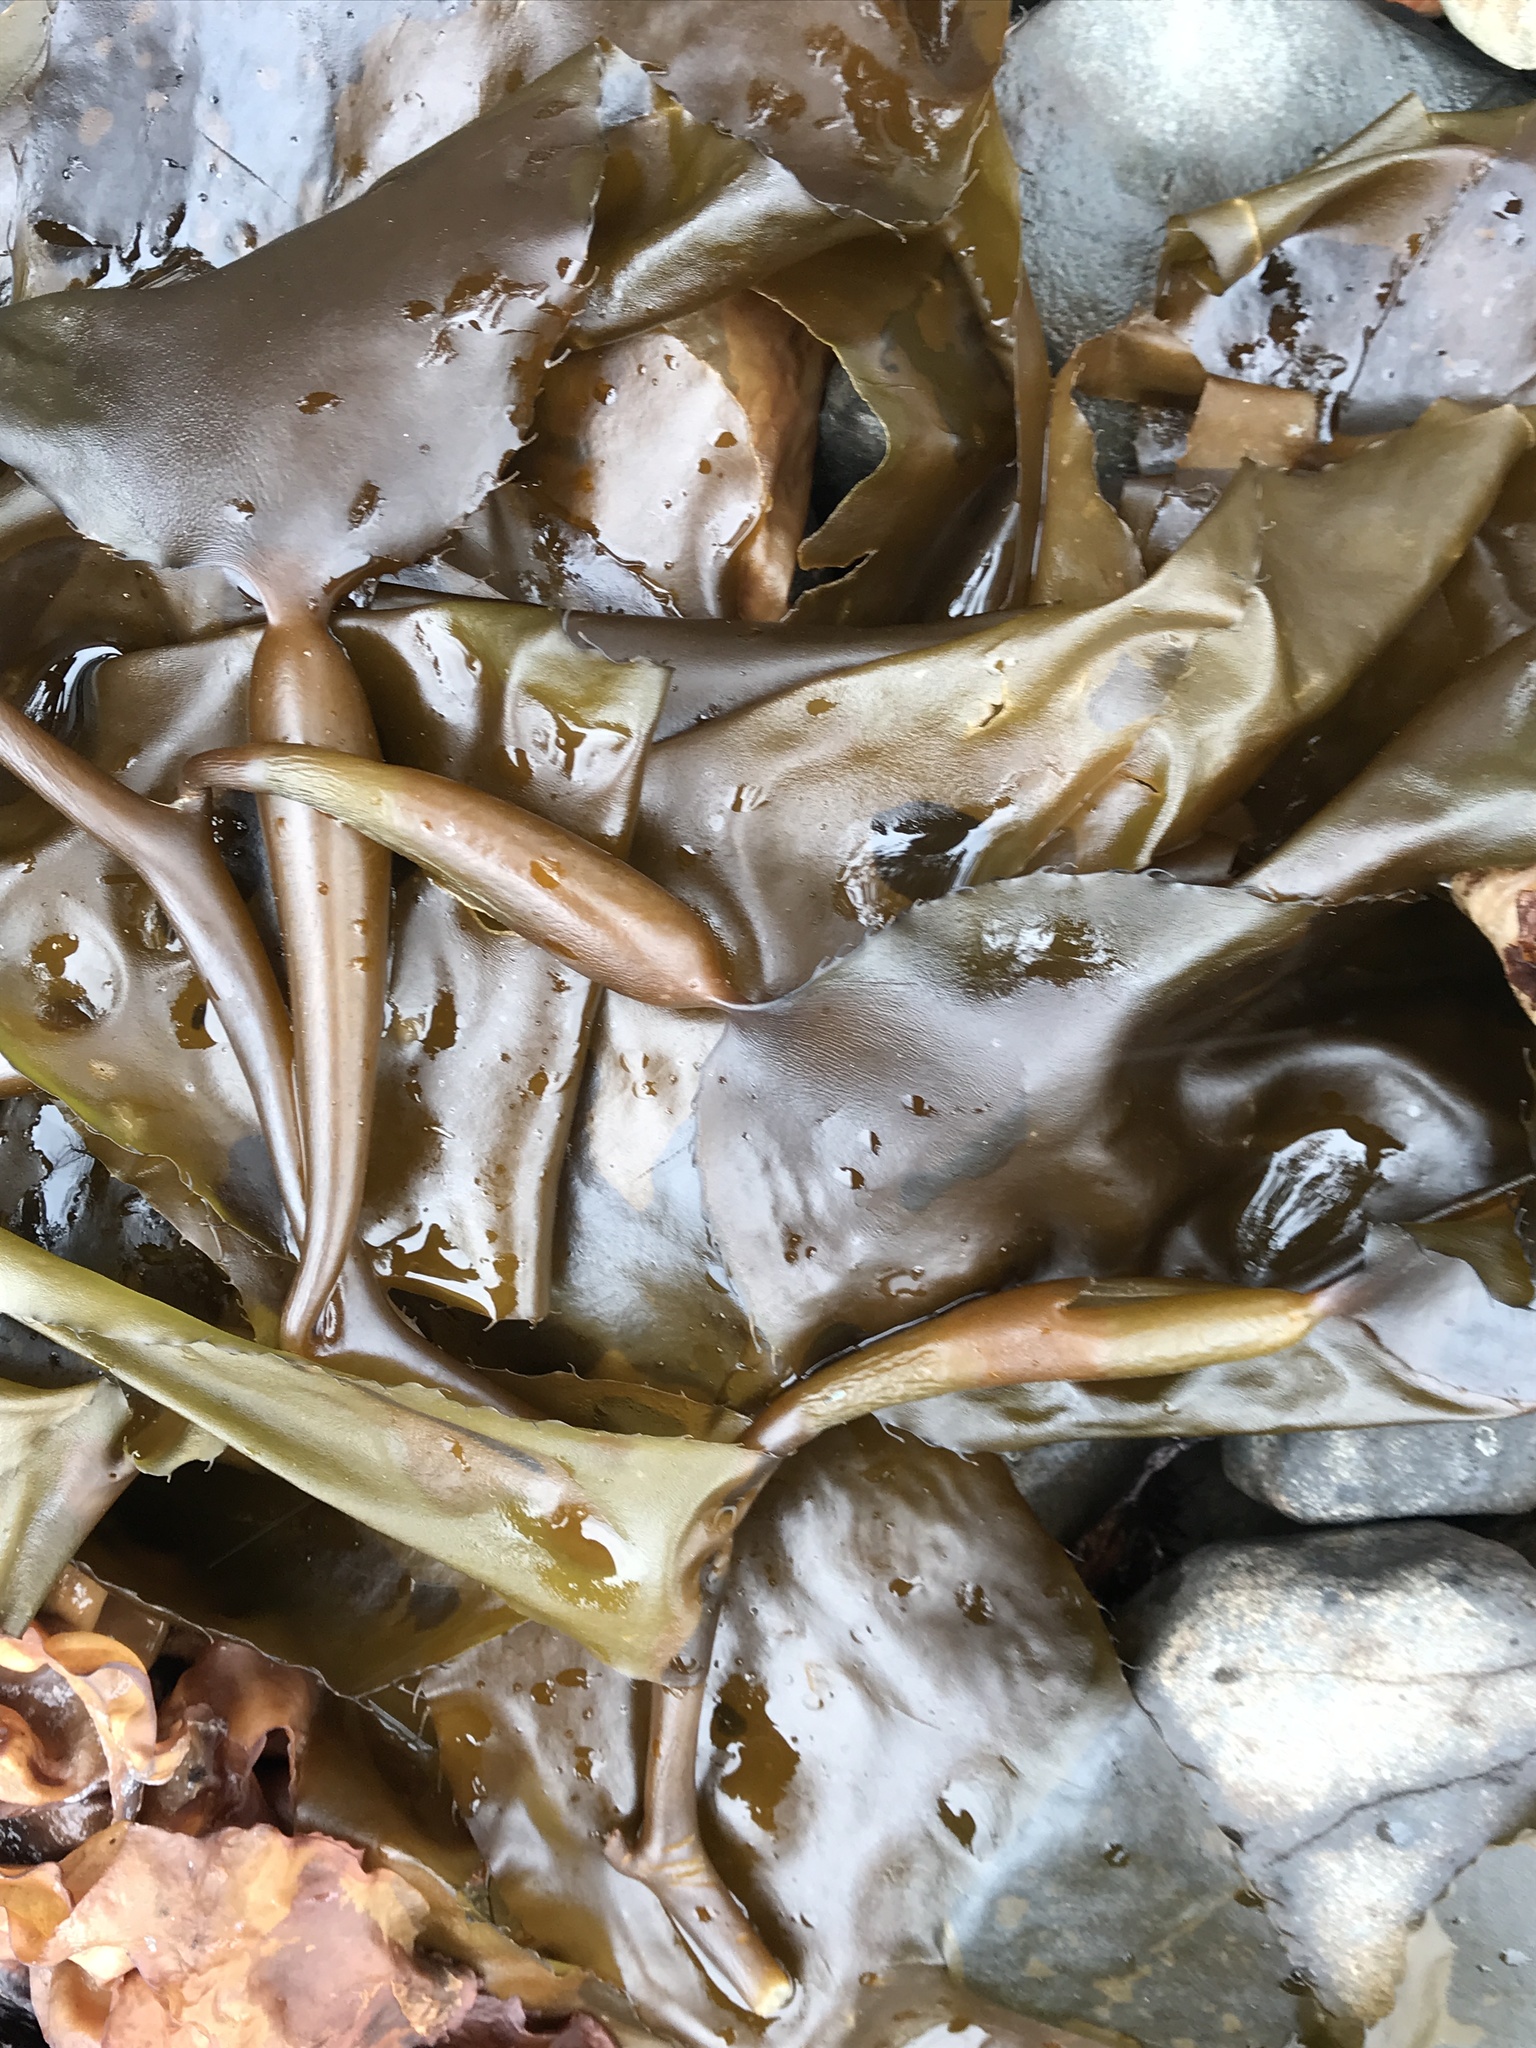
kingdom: Chromista
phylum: Ochrophyta
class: Phaeophyceae
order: Laminariales
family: Laminariaceae
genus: Macrocystis
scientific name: Macrocystis pyrifera
